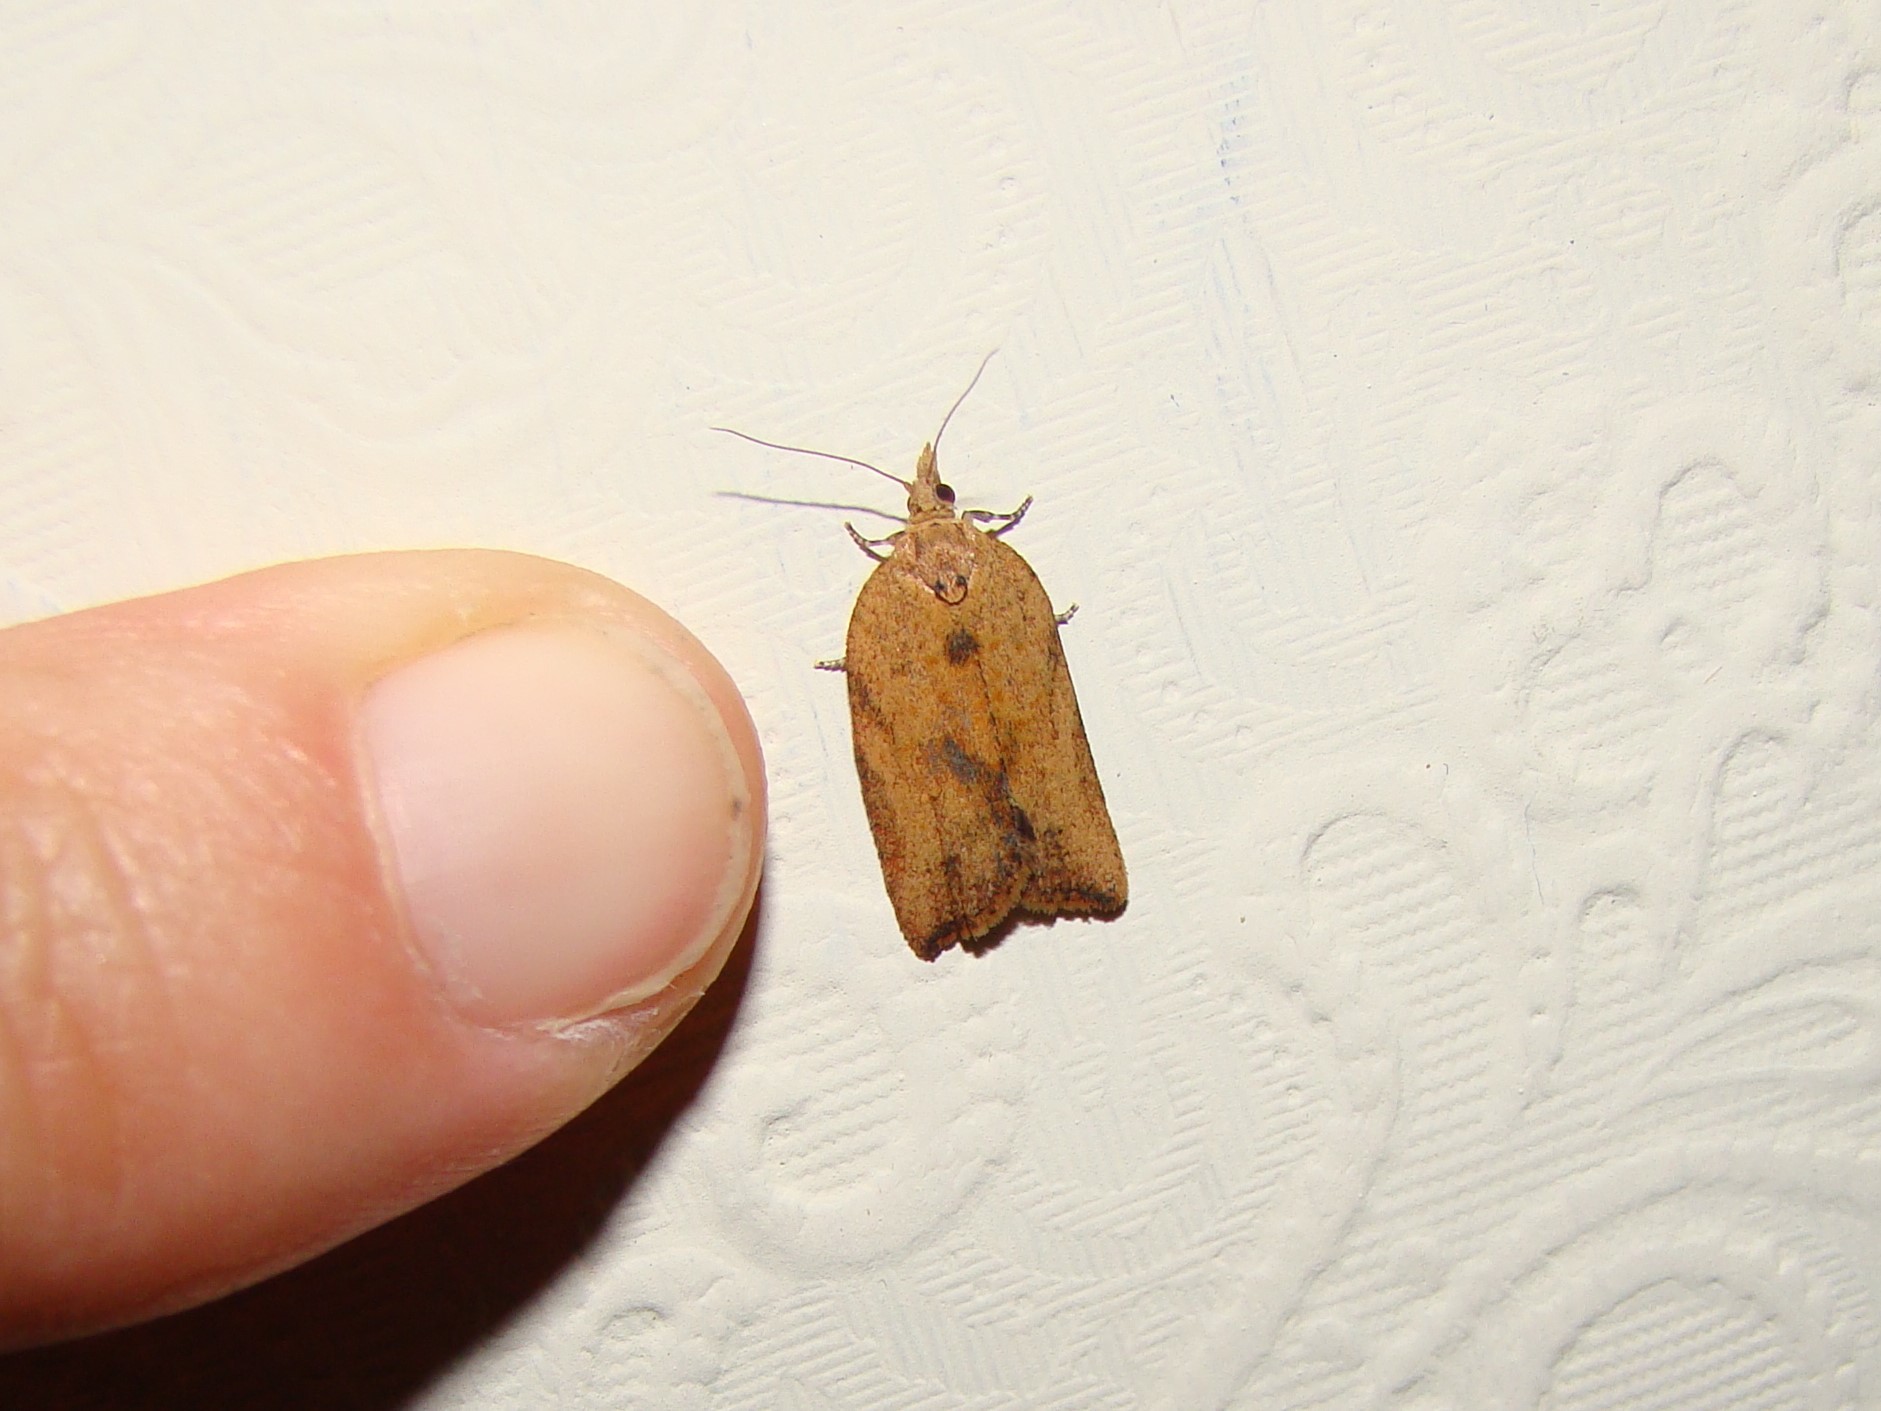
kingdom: Animalia
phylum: Arthropoda
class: Insecta
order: Lepidoptera
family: Tortricidae
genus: Epiphyas
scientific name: Epiphyas postvittana
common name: Light brown apple moth
